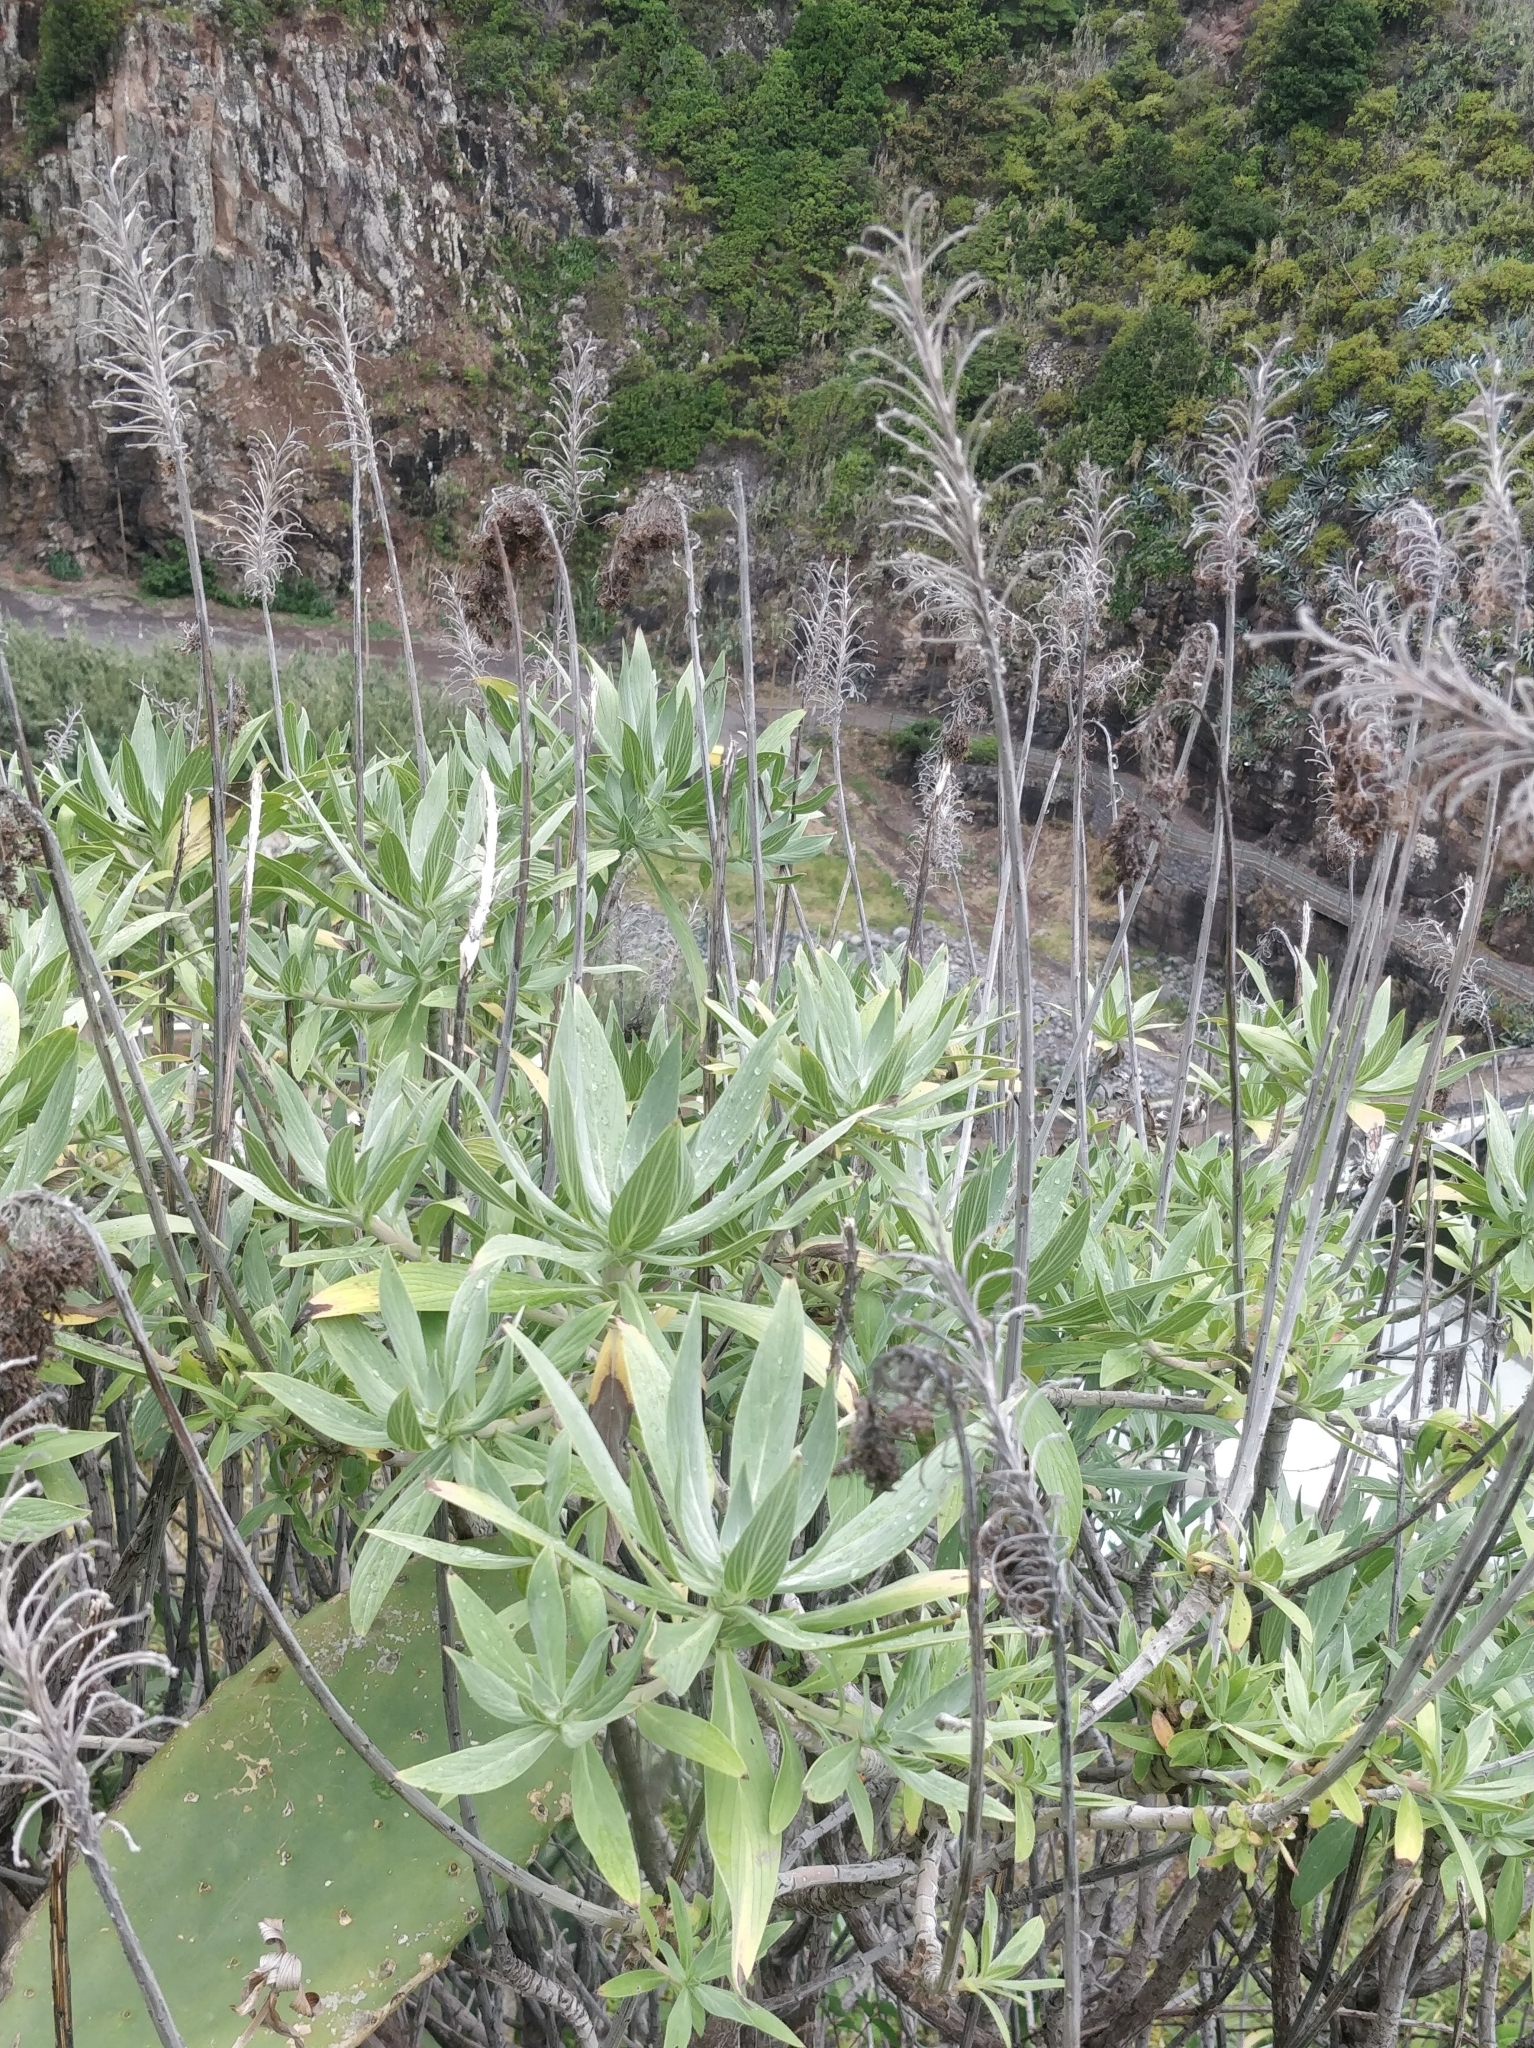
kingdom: Plantae
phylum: Tracheophyta
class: Magnoliopsida
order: Boraginales
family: Boraginaceae
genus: Echium
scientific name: Echium nervosum
